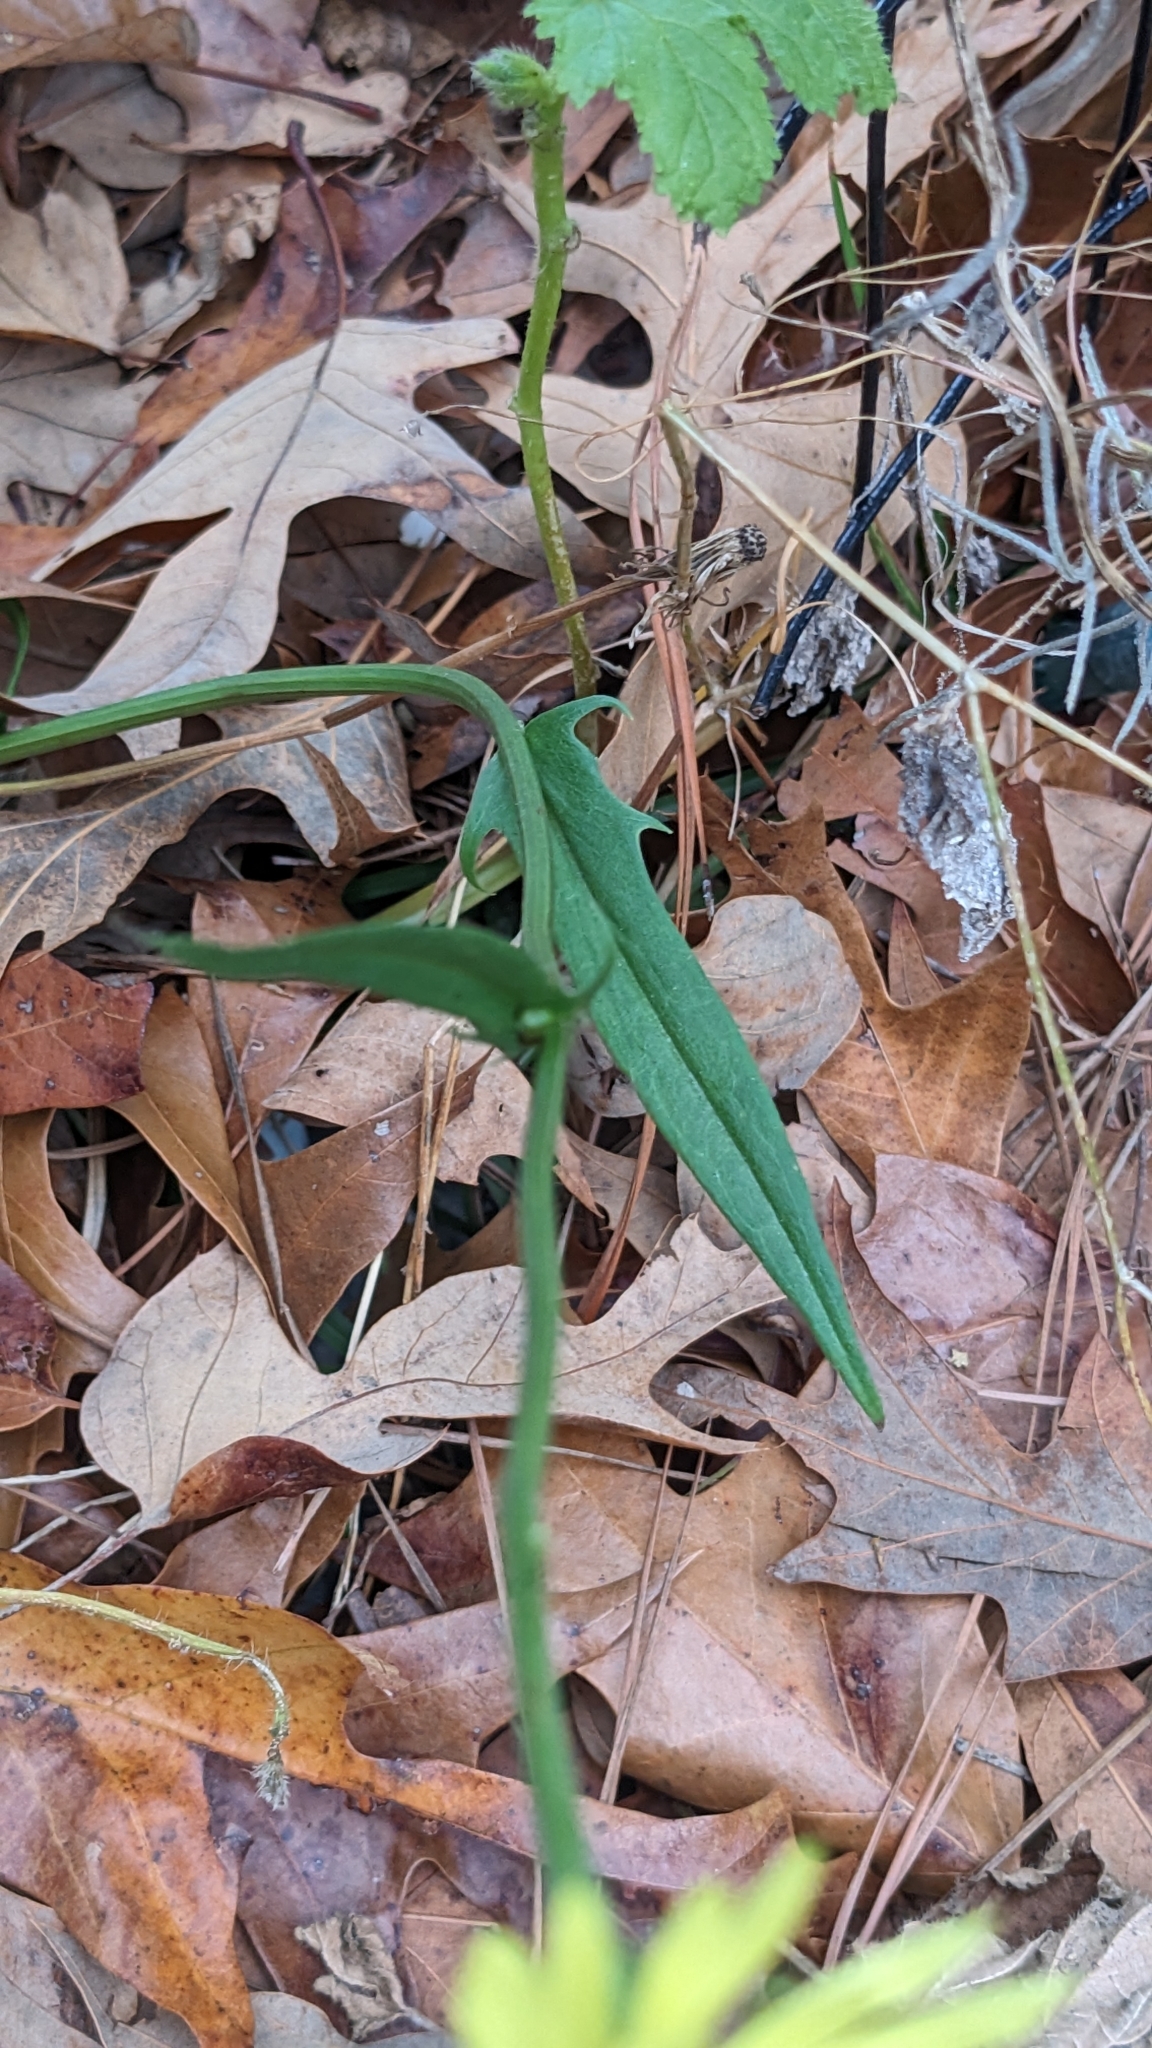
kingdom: Plantae
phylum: Tracheophyta
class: Magnoliopsida
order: Asterales
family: Asteraceae
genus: Pyrrhopappus
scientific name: Pyrrhopappus carolinianus
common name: Carolina desert-chicory
